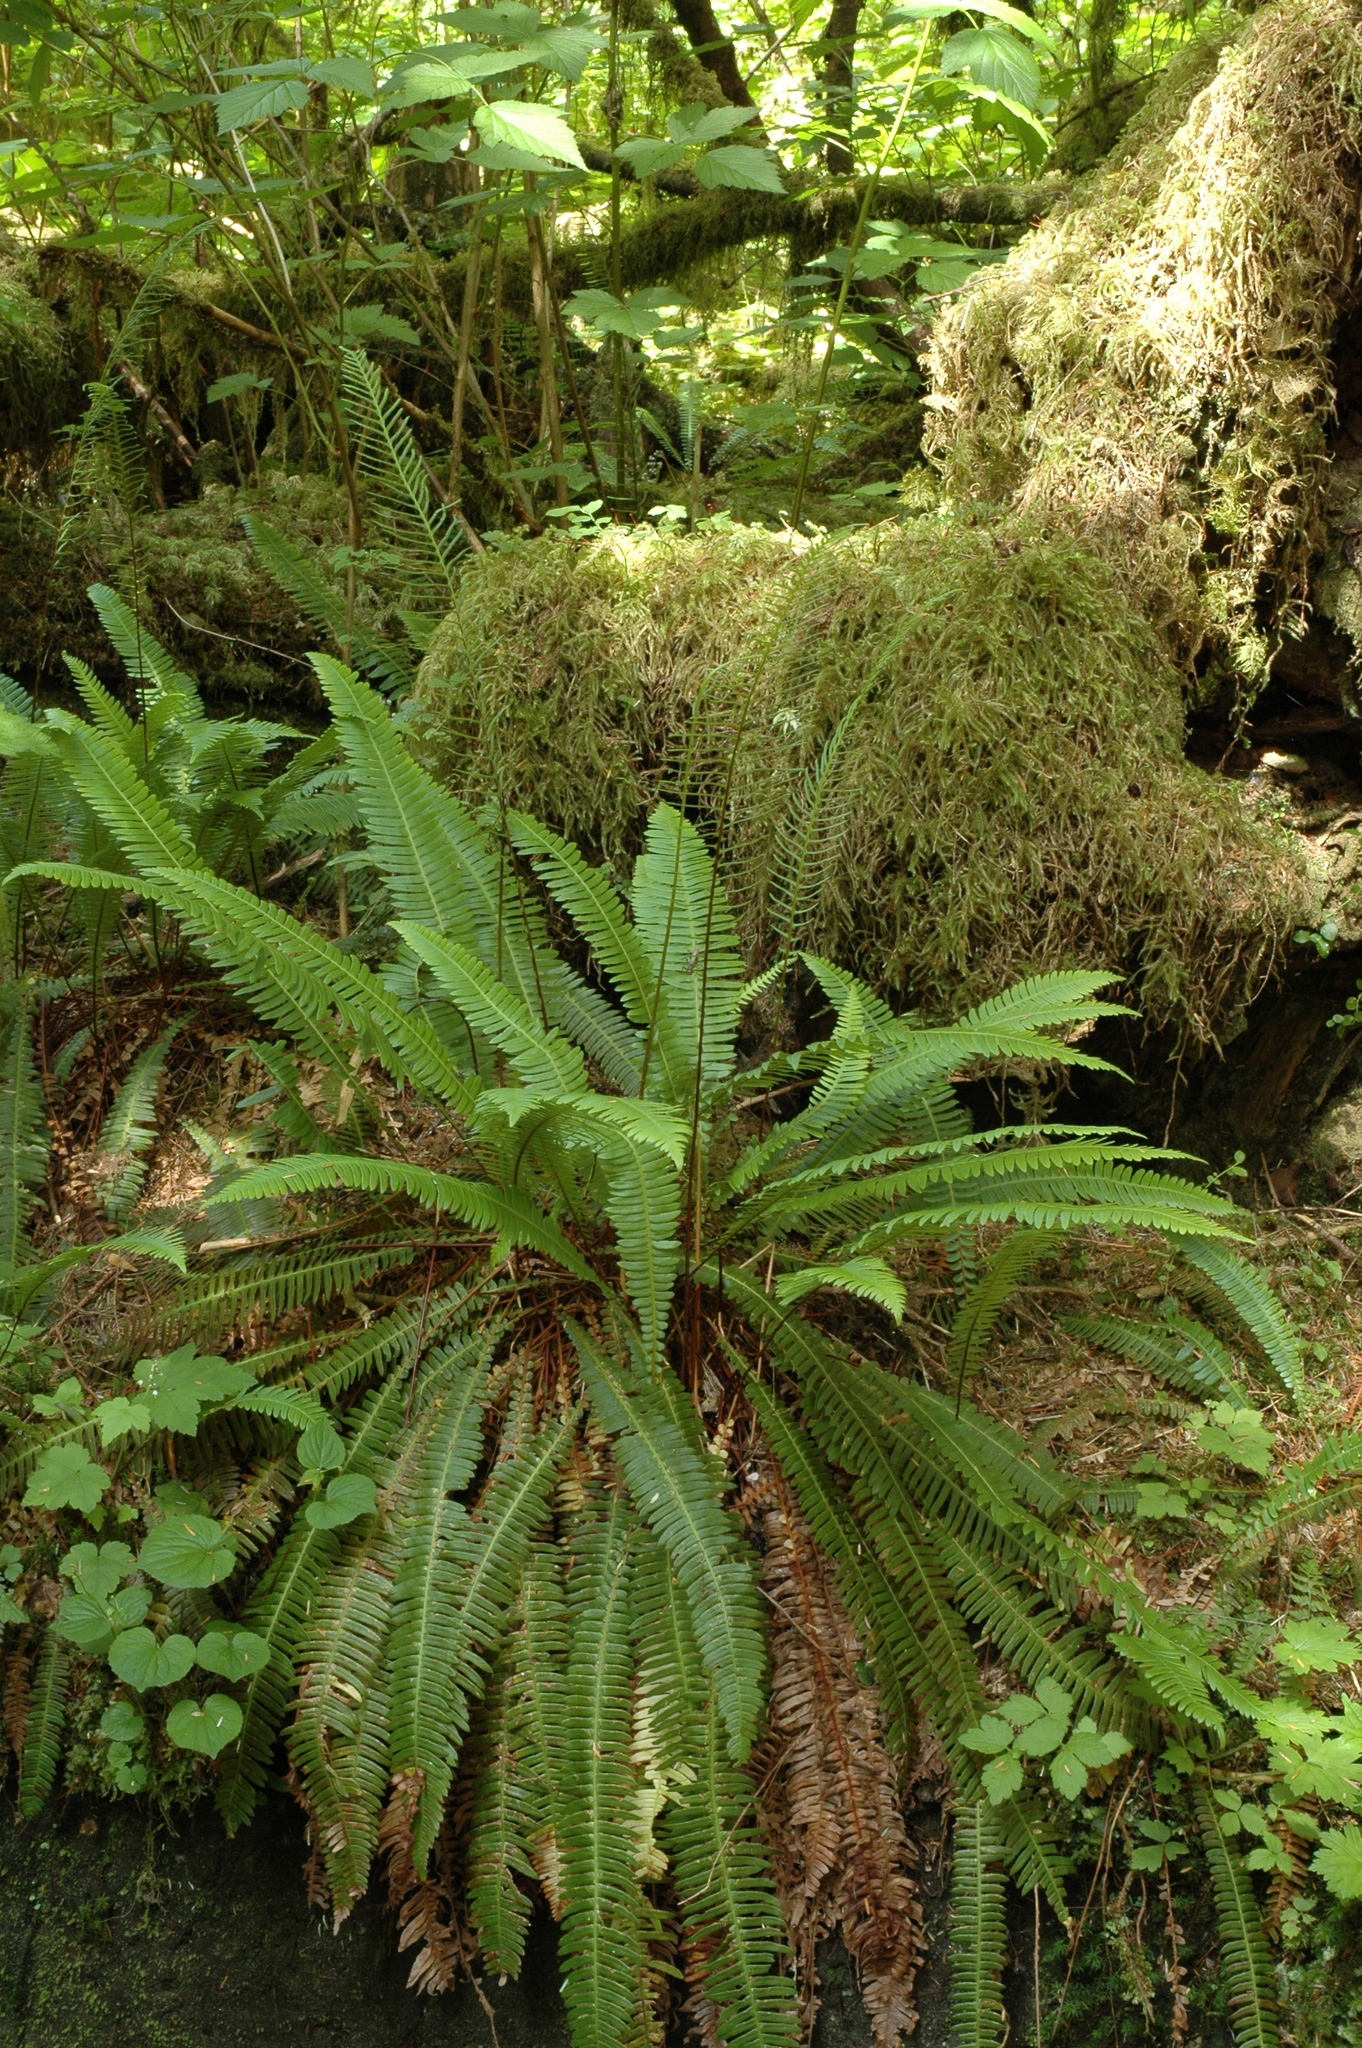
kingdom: Plantae
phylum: Tracheophyta
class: Polypodiopsida
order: Polypodiales
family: Blechnaceae
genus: Struthiopteris
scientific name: Struthiopteris spicant
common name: Deer fern
